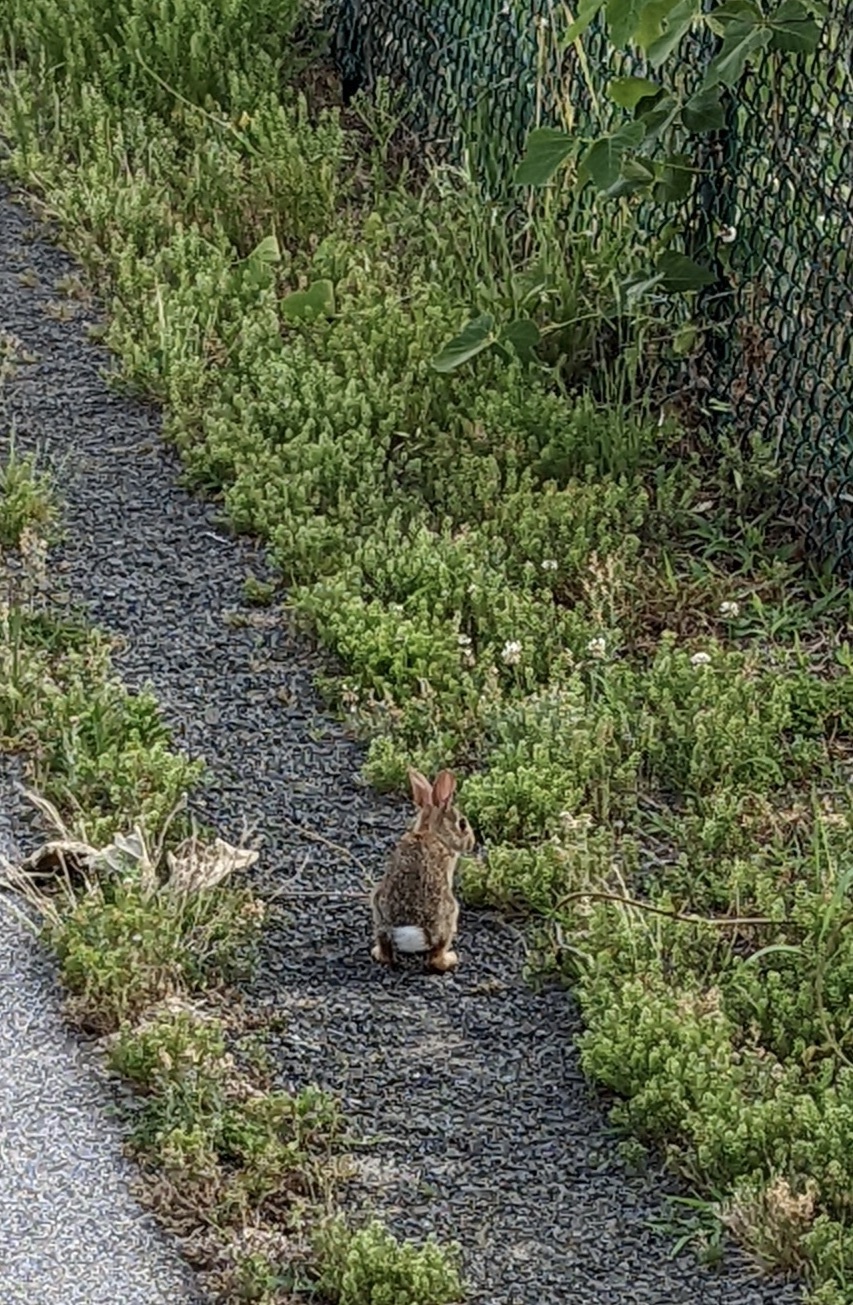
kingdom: Animalia
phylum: Chordata
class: Mammalia
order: Lagomorpha
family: Leporidae
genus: Sylvilagus
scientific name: Sylvilagus floridanus
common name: Eastern cottontail
